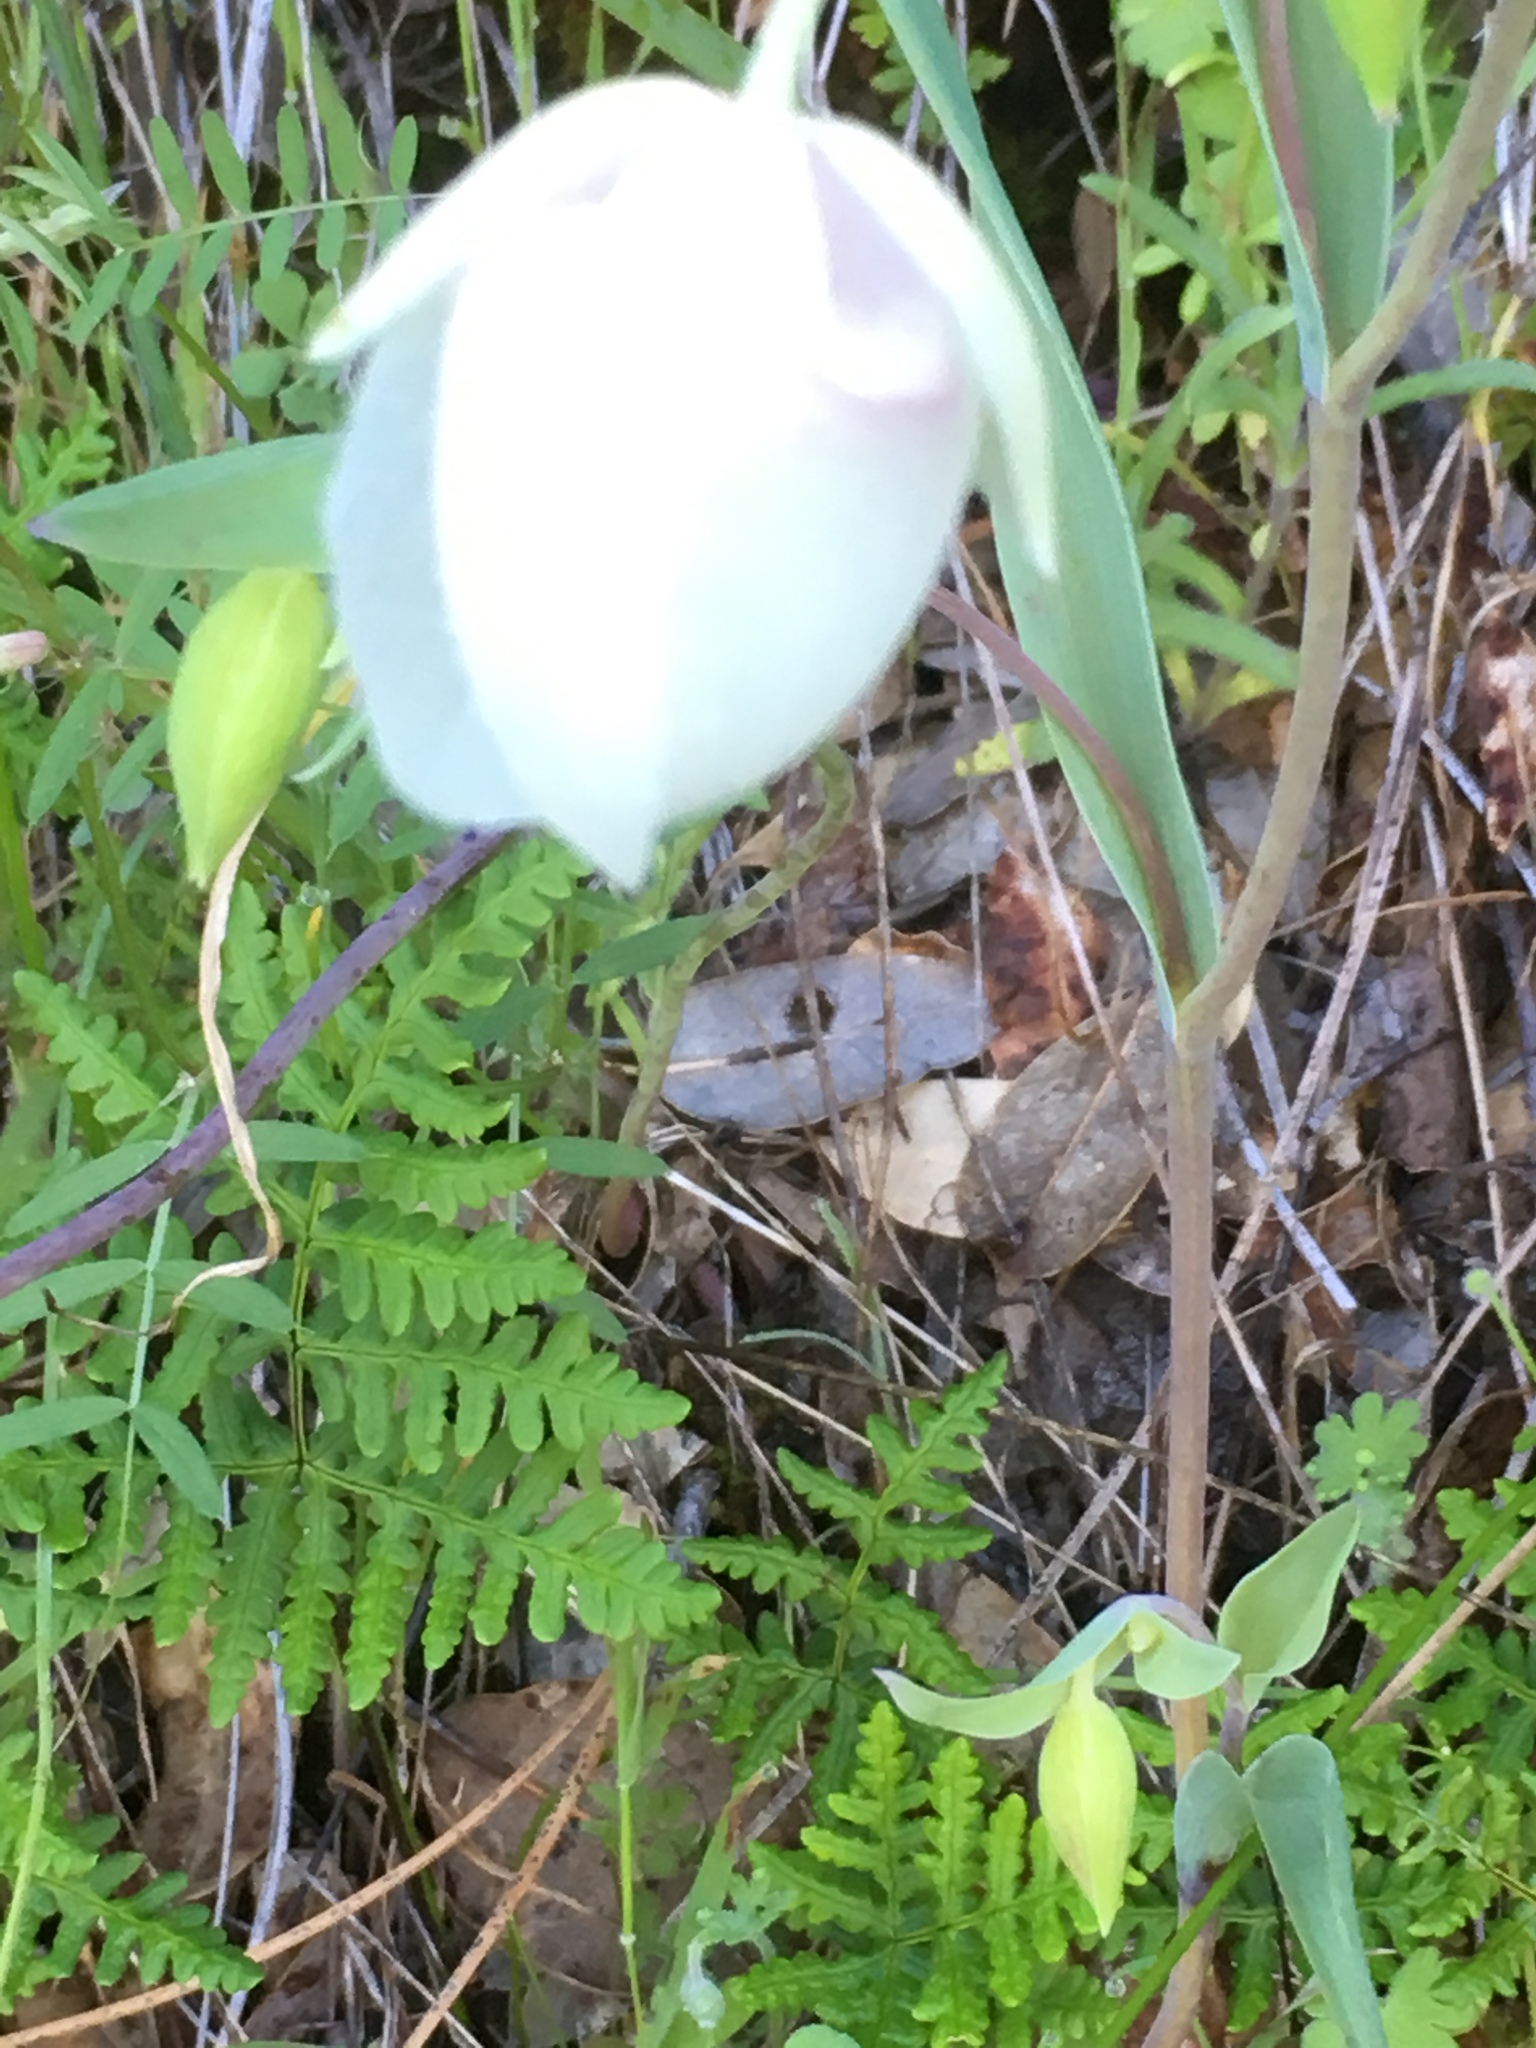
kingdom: Plantae
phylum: Tracheophyta
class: Liliopsida
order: Liliales
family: Liliaceae
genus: Calochortus
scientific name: Calochortus albus
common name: Fairy-lantern
